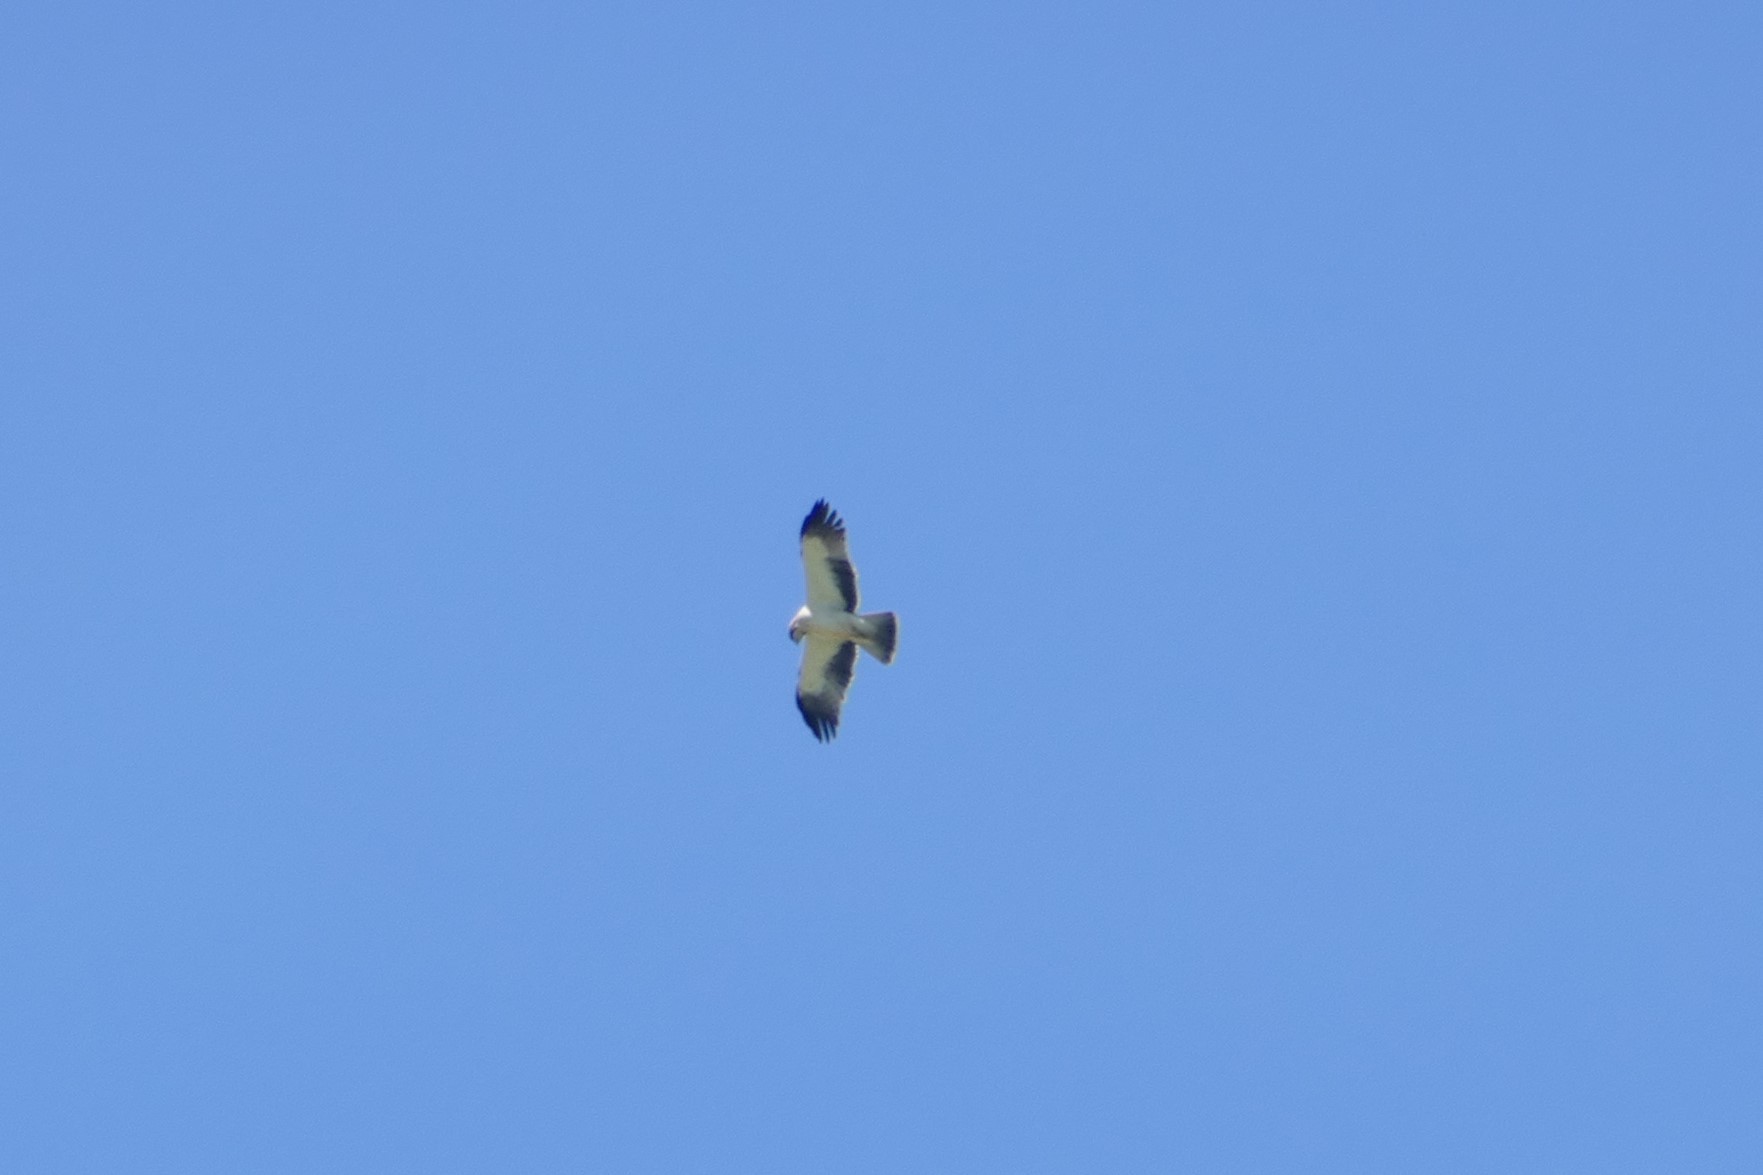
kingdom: Animalia
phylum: Chordata
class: Aves
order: Accipitriformes
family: Accipitridae
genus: Hieraaetus
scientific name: Hieraaetus pennatus
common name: Booted eagle
